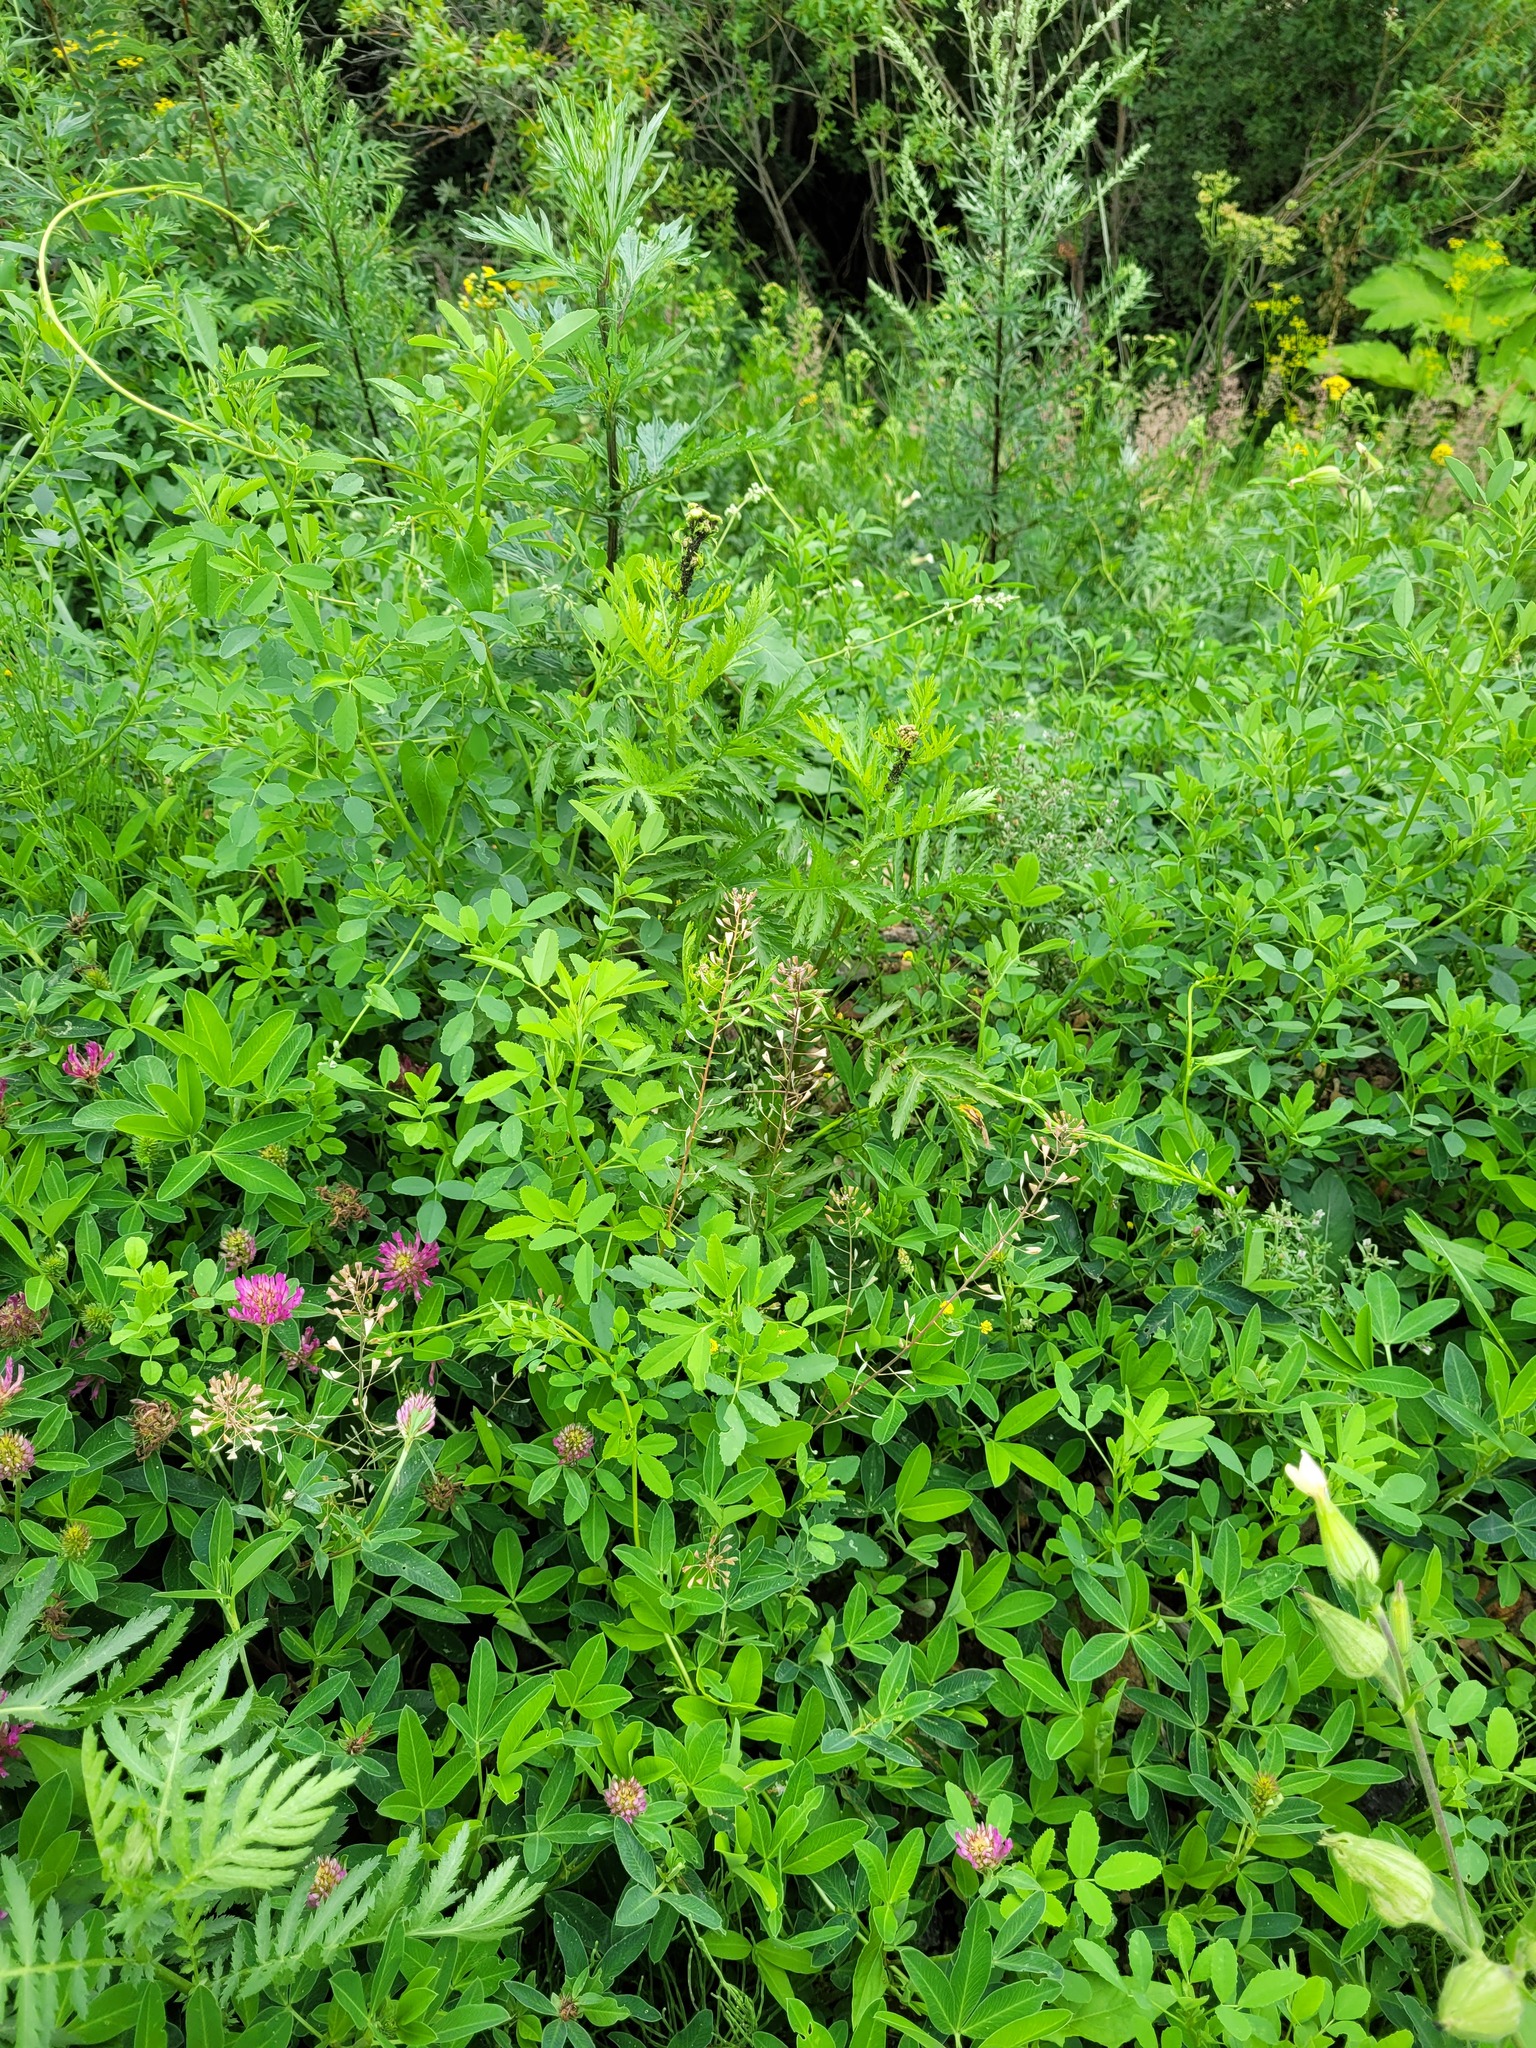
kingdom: Plantae
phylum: Tracheophyta
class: Magnoliopsida
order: Brassicales
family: Brassicaceae
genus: Capsella
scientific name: Capsella bursa-pastoris
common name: Shepherd's purse
